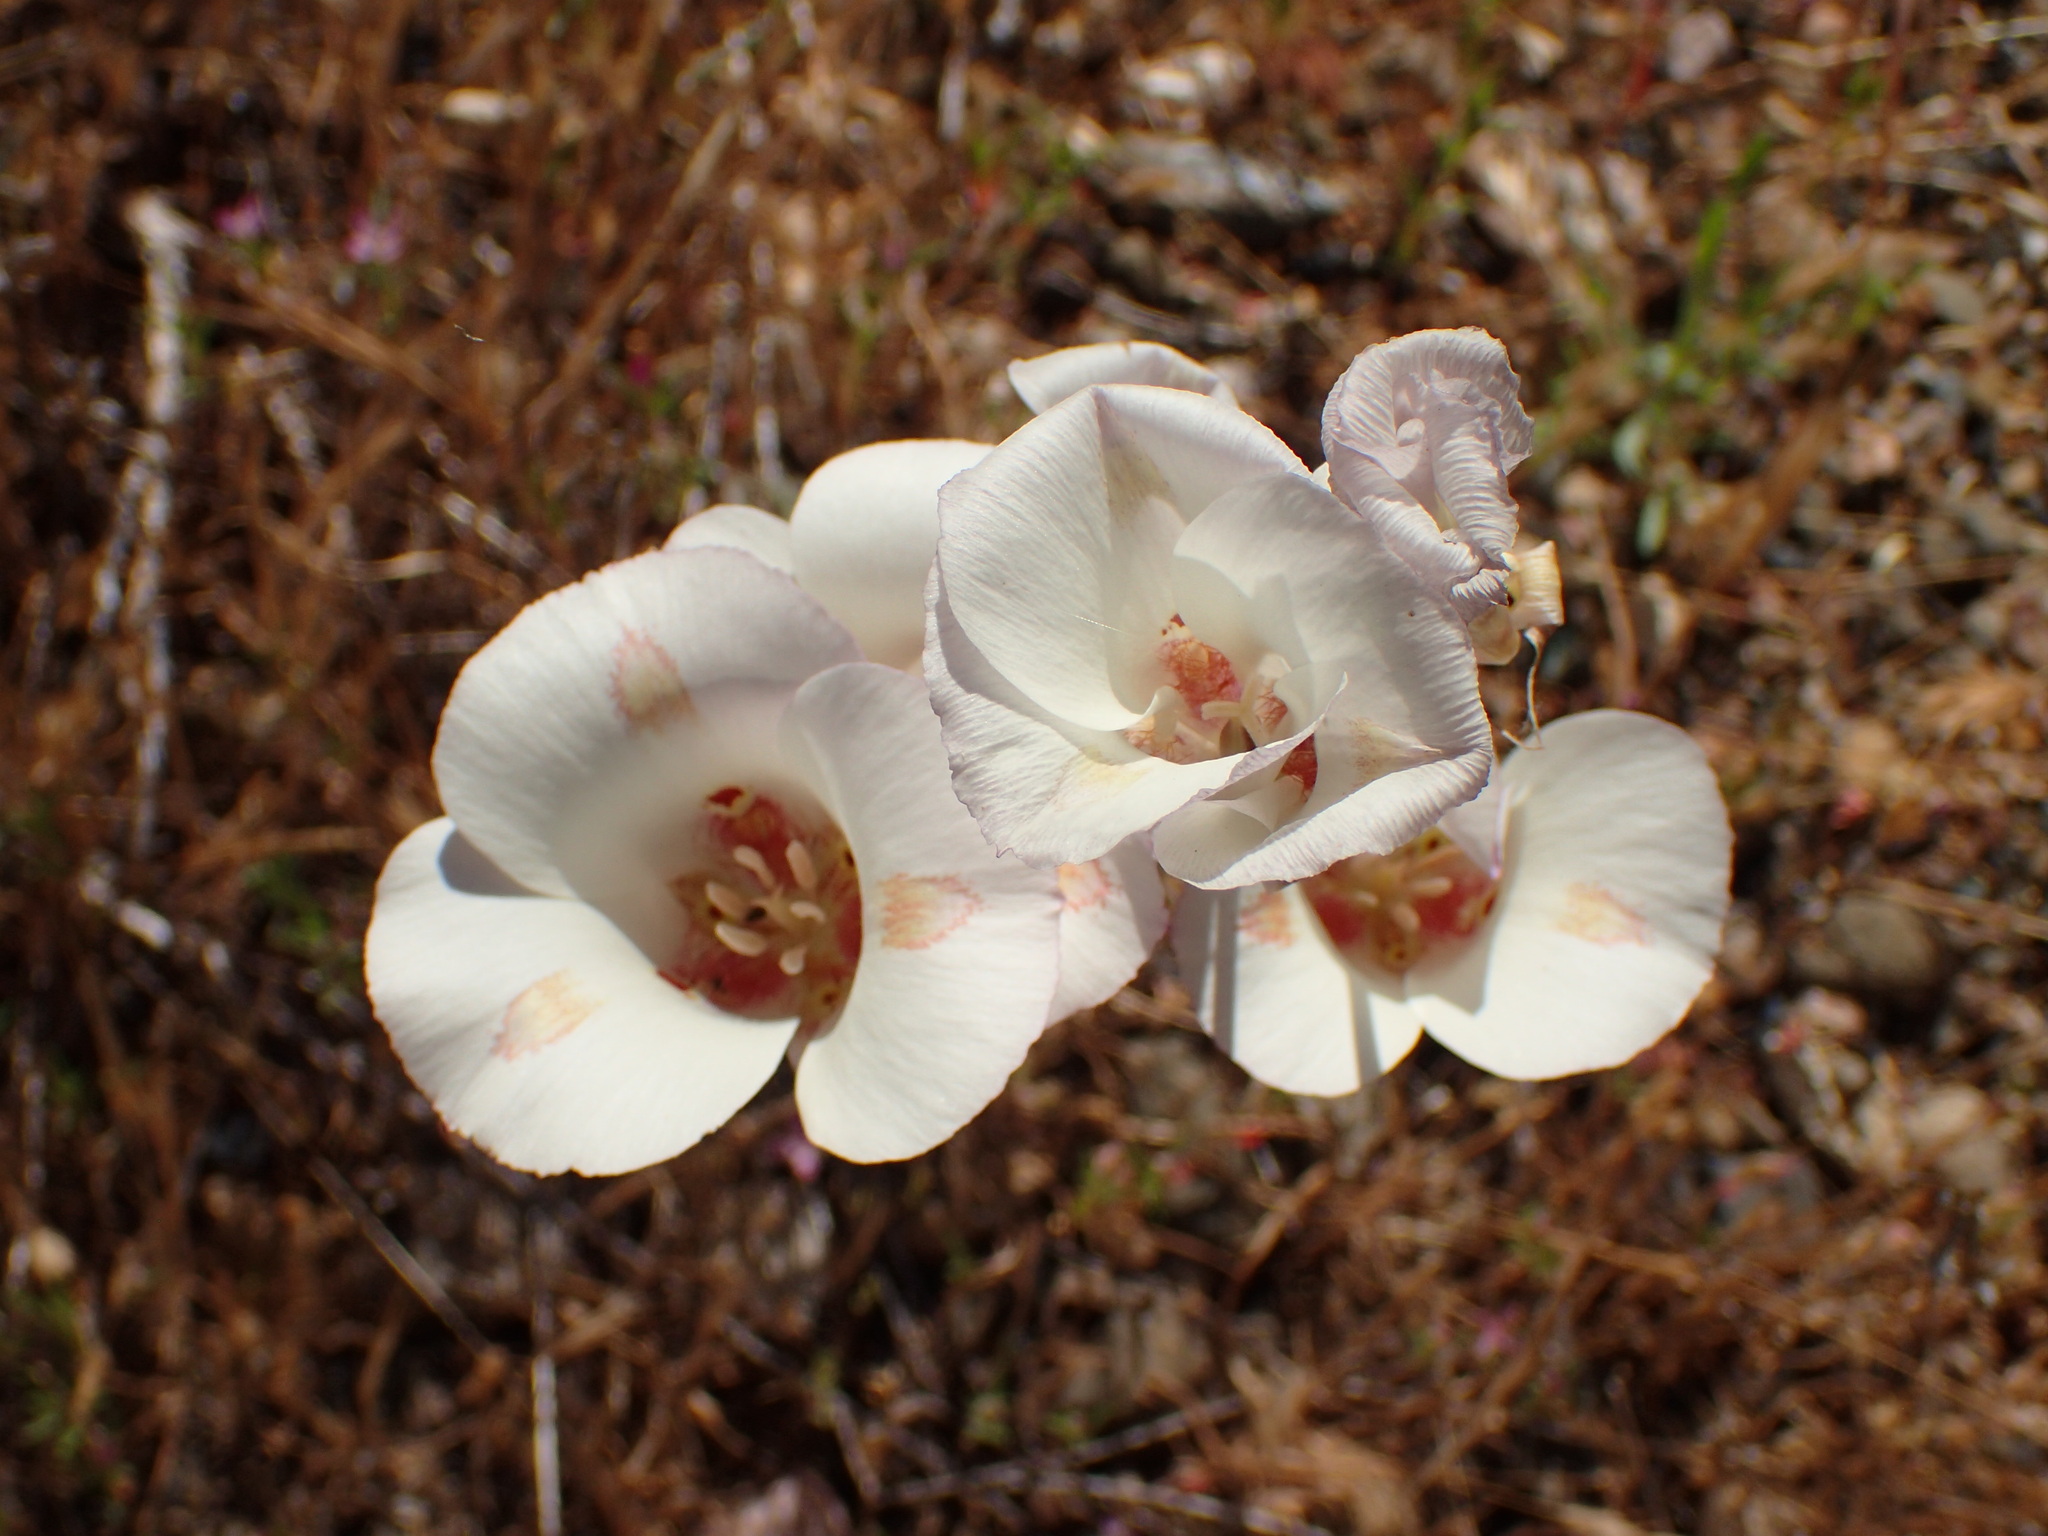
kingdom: Plantae
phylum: Tracheophyta
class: Liliopsida
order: Liliales
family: Liliaceae
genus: Calochortus
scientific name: Calochortus venustus
